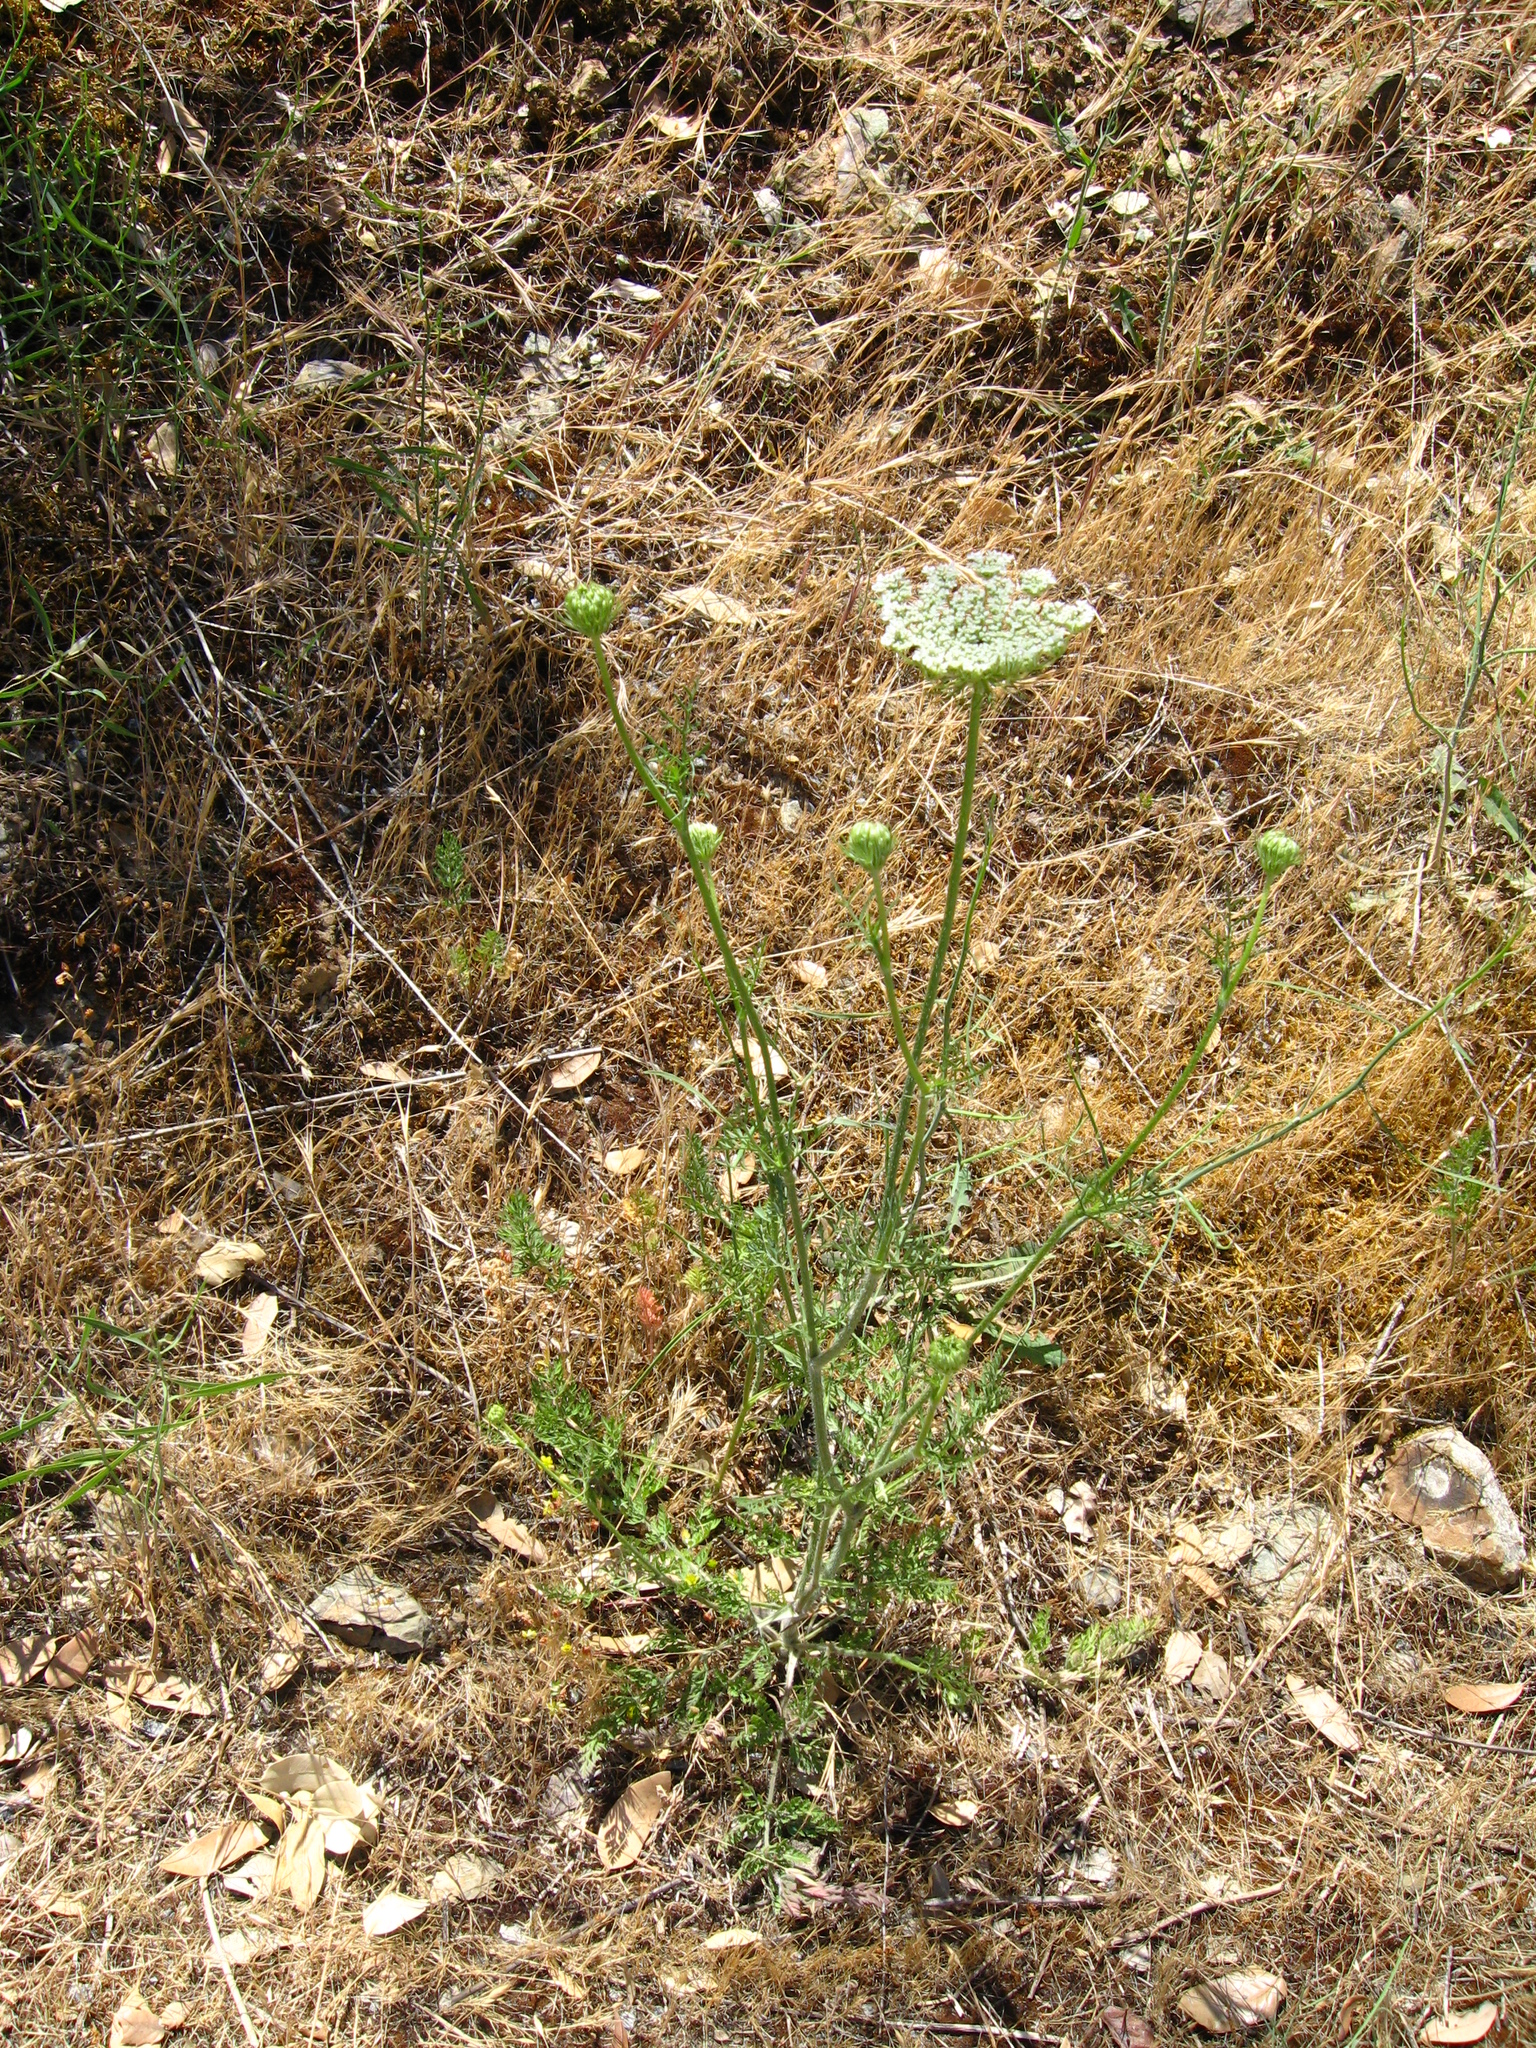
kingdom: Plantae
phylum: Tracheophyta
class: Magnoliopsida
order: Apiales
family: Apiaceae
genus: Daucus
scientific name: Daucus carota
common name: Wild carrot
